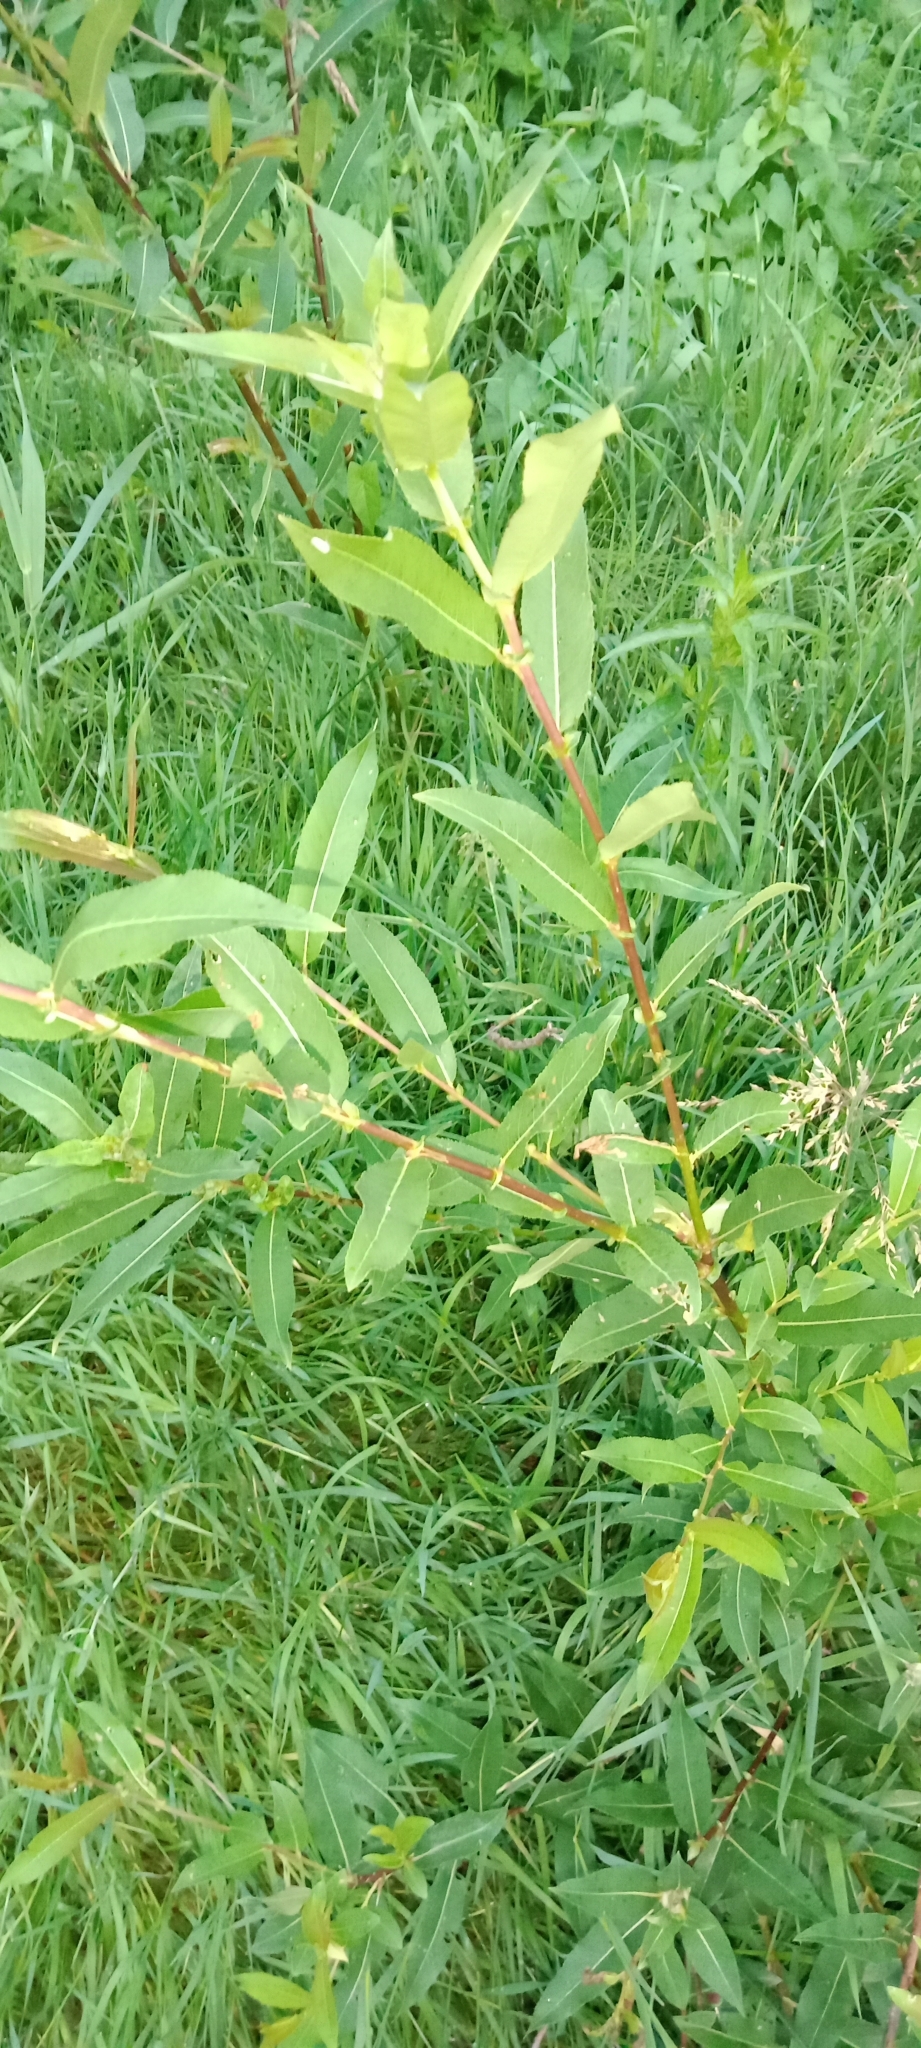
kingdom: Plantae
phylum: Tracheophyta
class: Magnoliopsida
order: Malpighiales
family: Salicaceae
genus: Salix
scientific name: Salix triandra
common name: Almond willow
